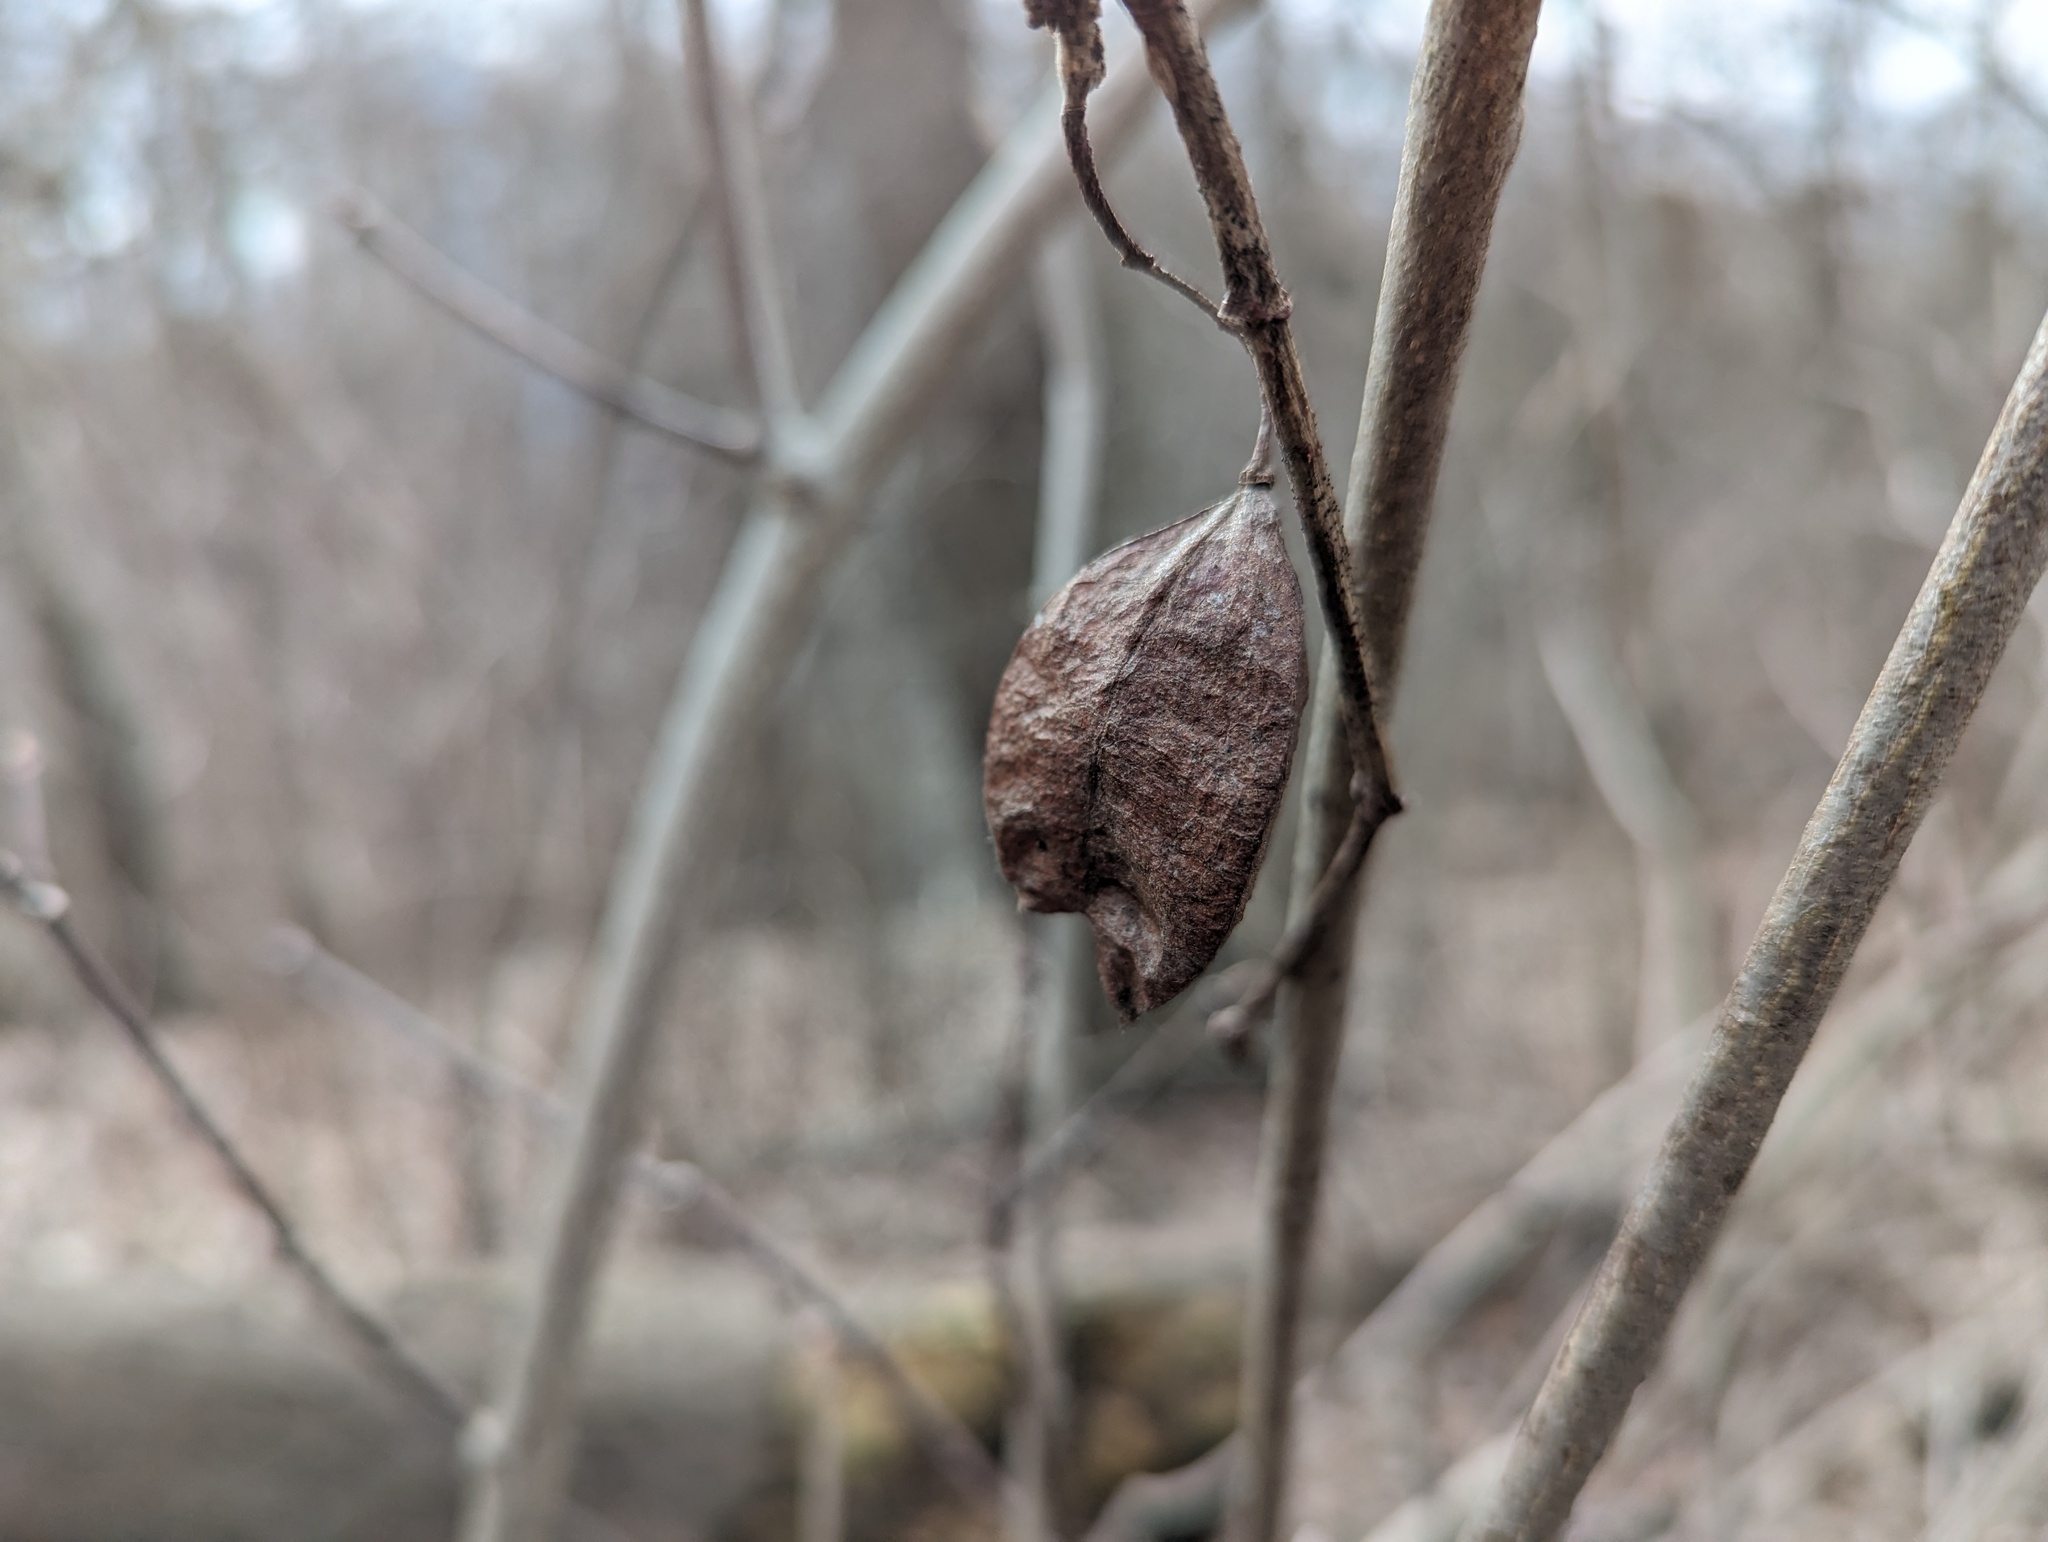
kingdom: Plantae
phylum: Tracheophyta
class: Magnoliopsida
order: Crossosomatales
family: Staphyleaceae
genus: Staphylea
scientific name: Staphylea trifolia
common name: American bladdernut
